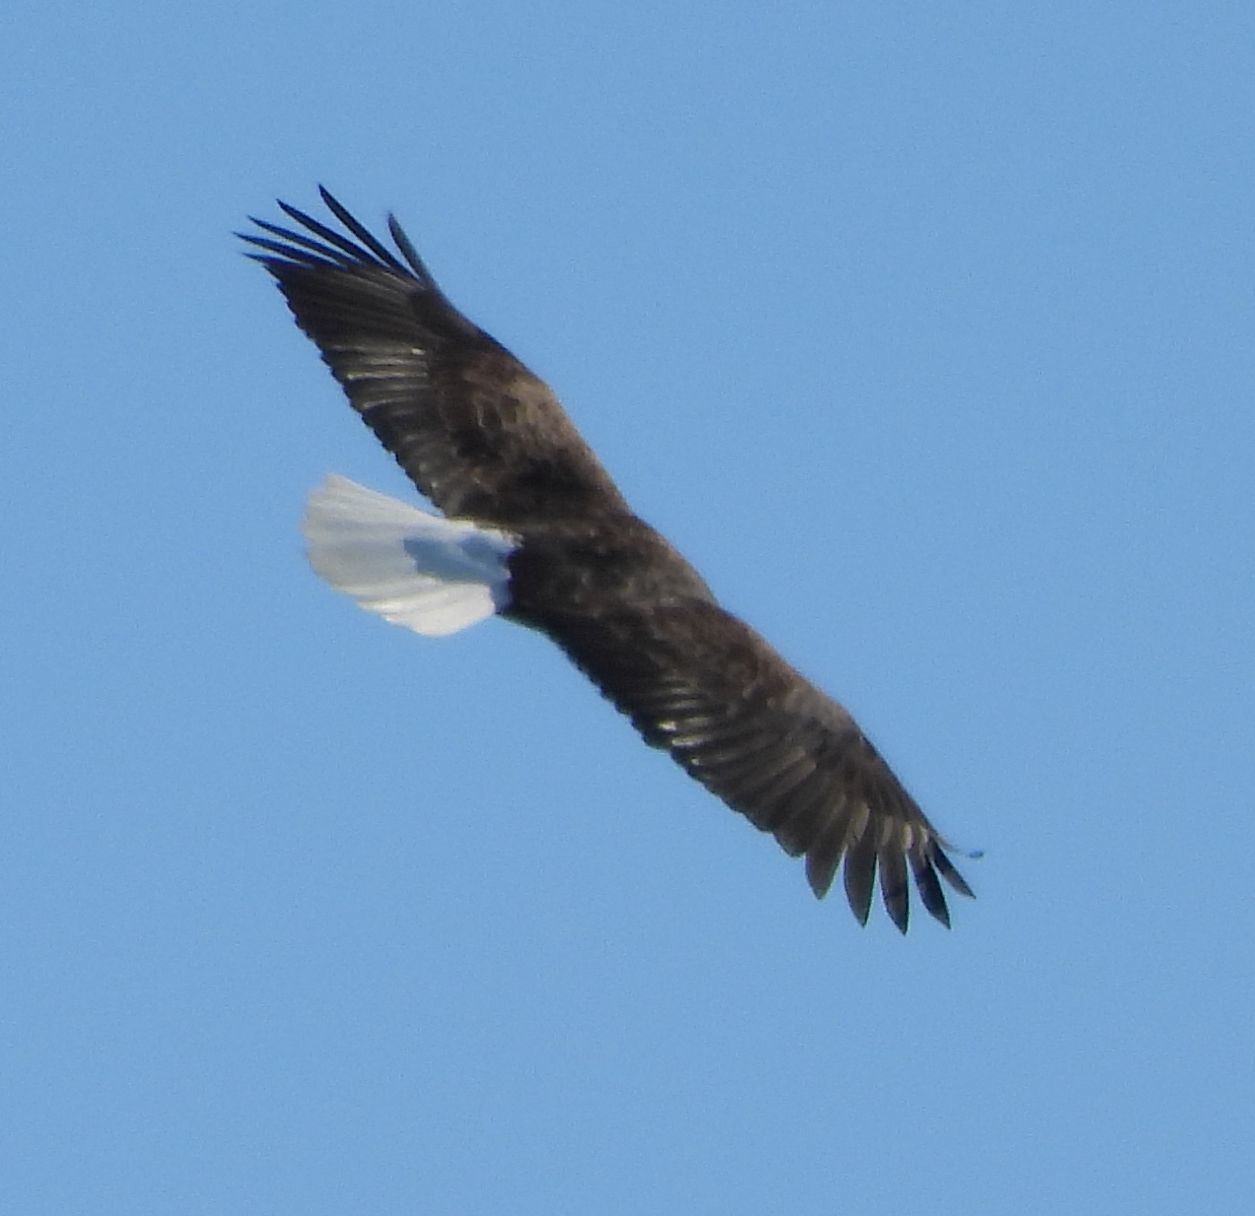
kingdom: Animalia
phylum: Chordata
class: Aves
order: Accipitriformes
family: Accipitridae
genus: Haliaeetus
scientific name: Haliaeetus leucocephalus
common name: Bald eagle
